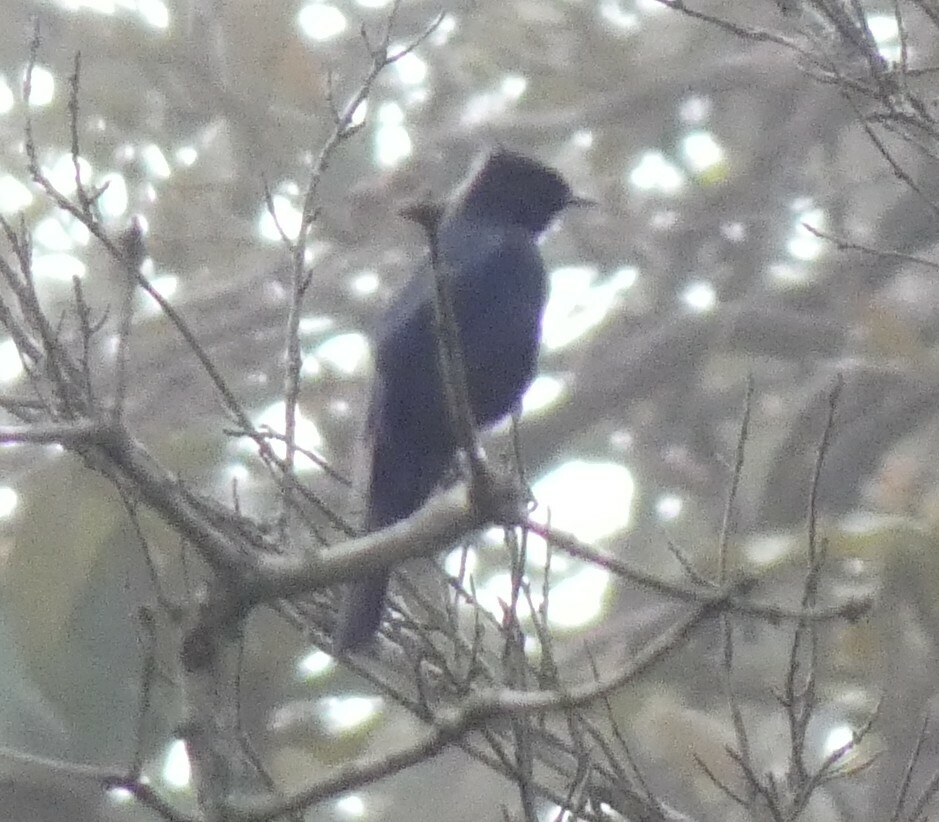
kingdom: Animalia
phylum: Chordata
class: Aves
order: Passeriformes
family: Tyrannidae
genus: Knipolegus
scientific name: Knipolegus lophotes
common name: Crested black tyrant
